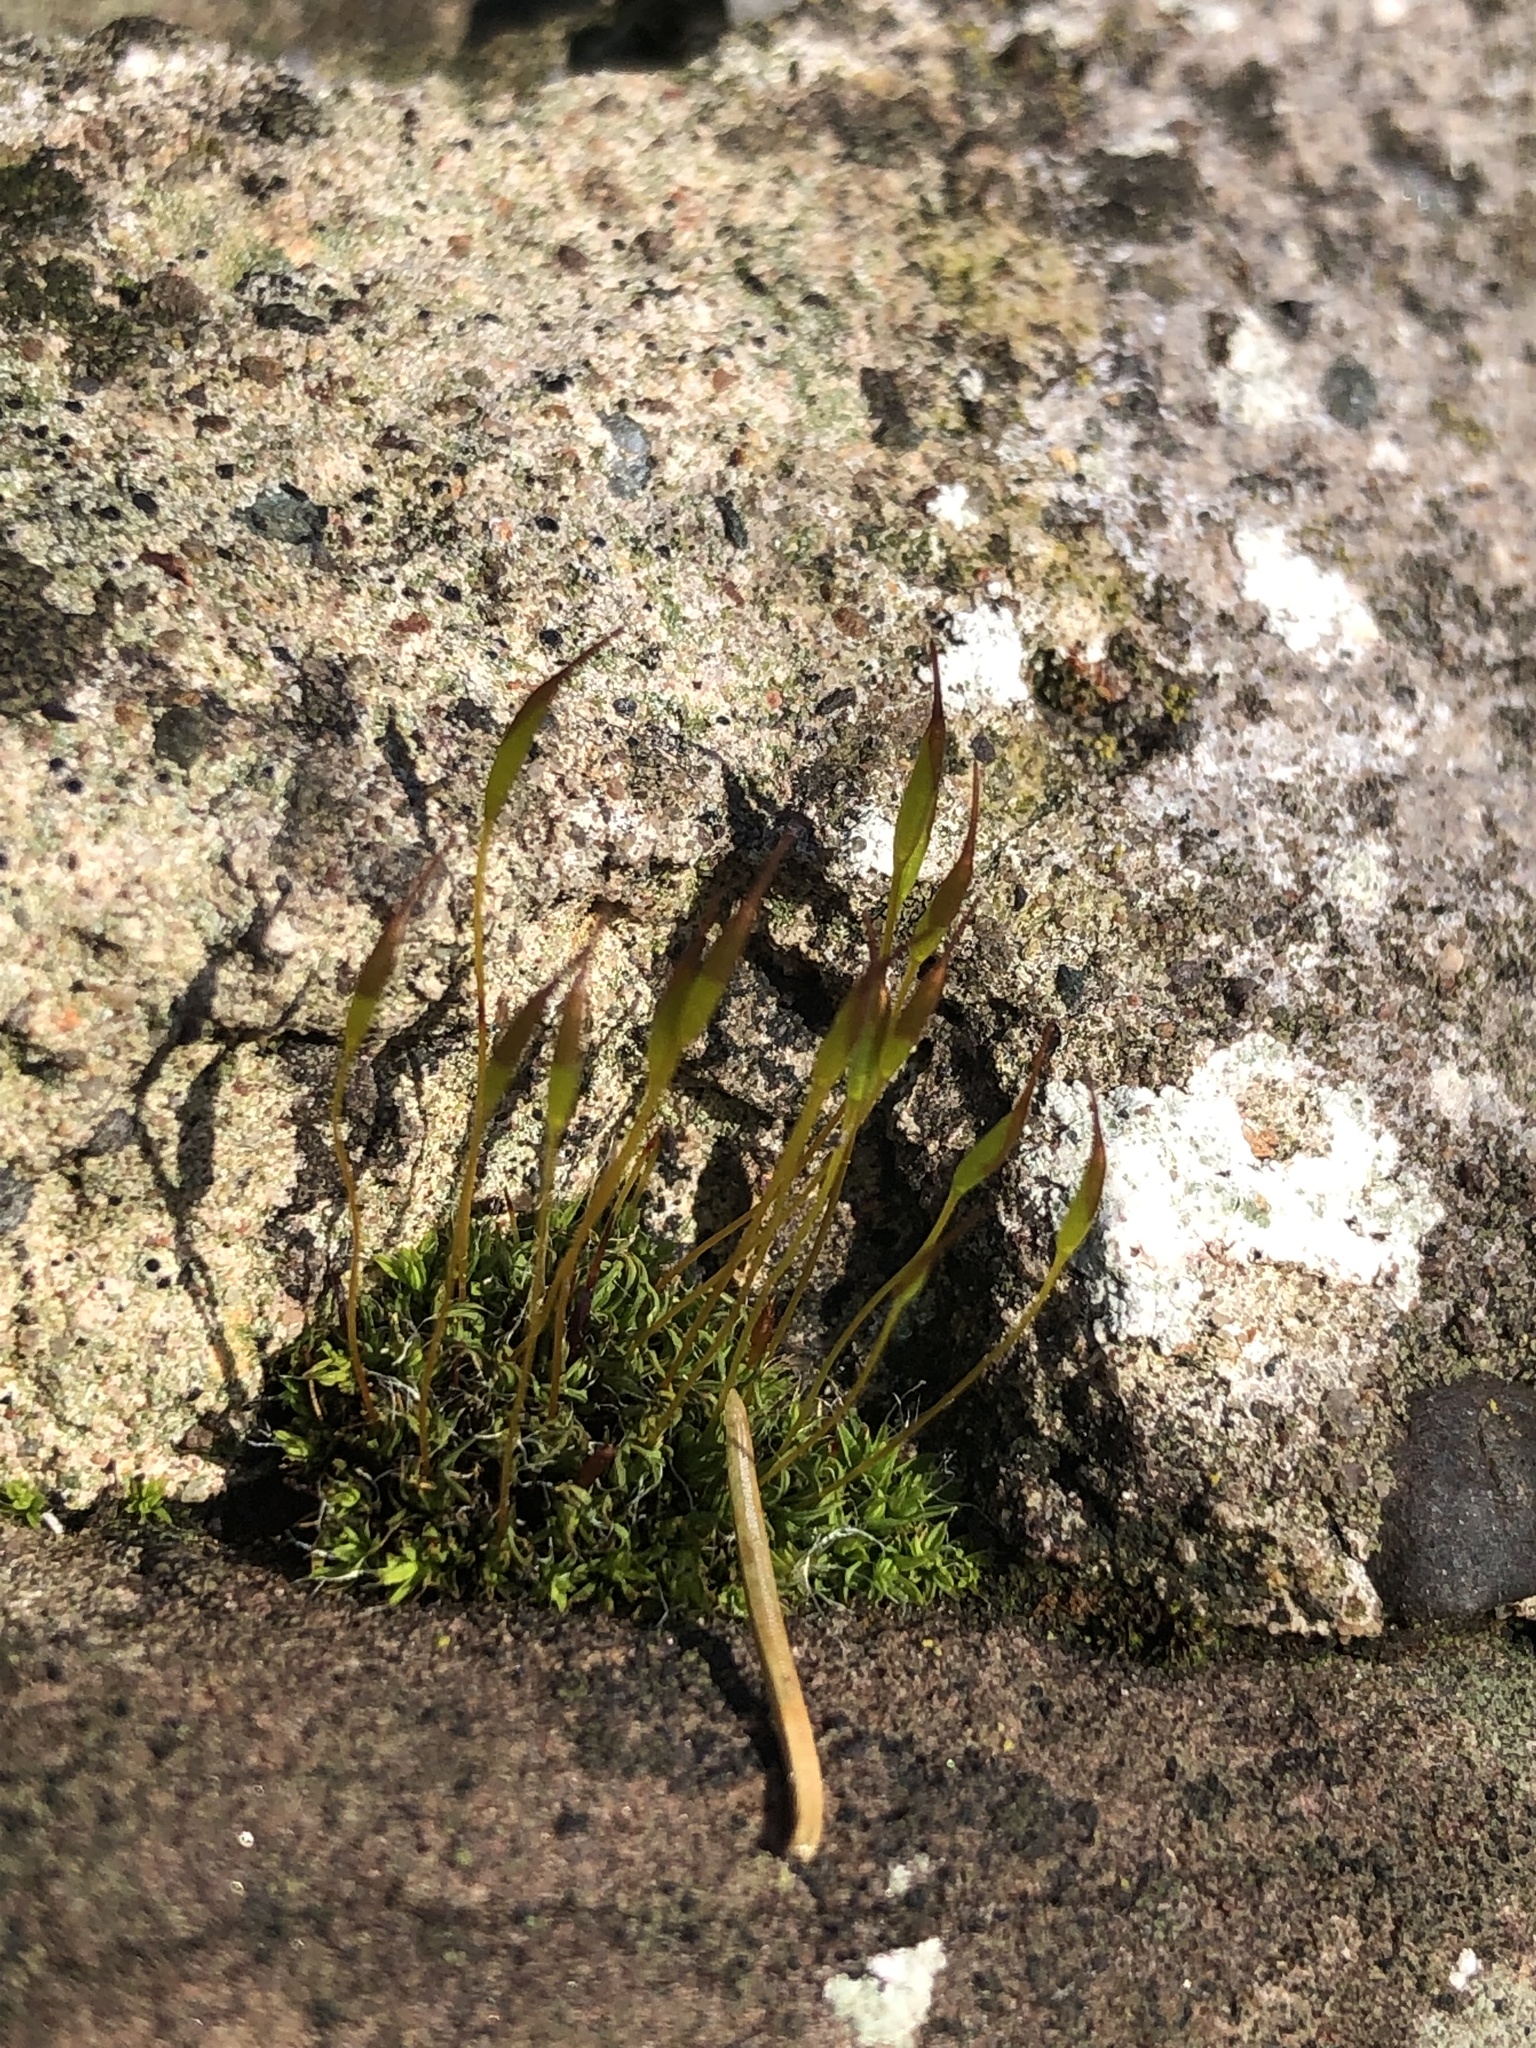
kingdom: Plantae
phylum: Bryophyta
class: Bryopsida
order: Pottiales
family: Pottiaceae
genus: Tortula
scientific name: Tortula muralis
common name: Wall screw-moss
